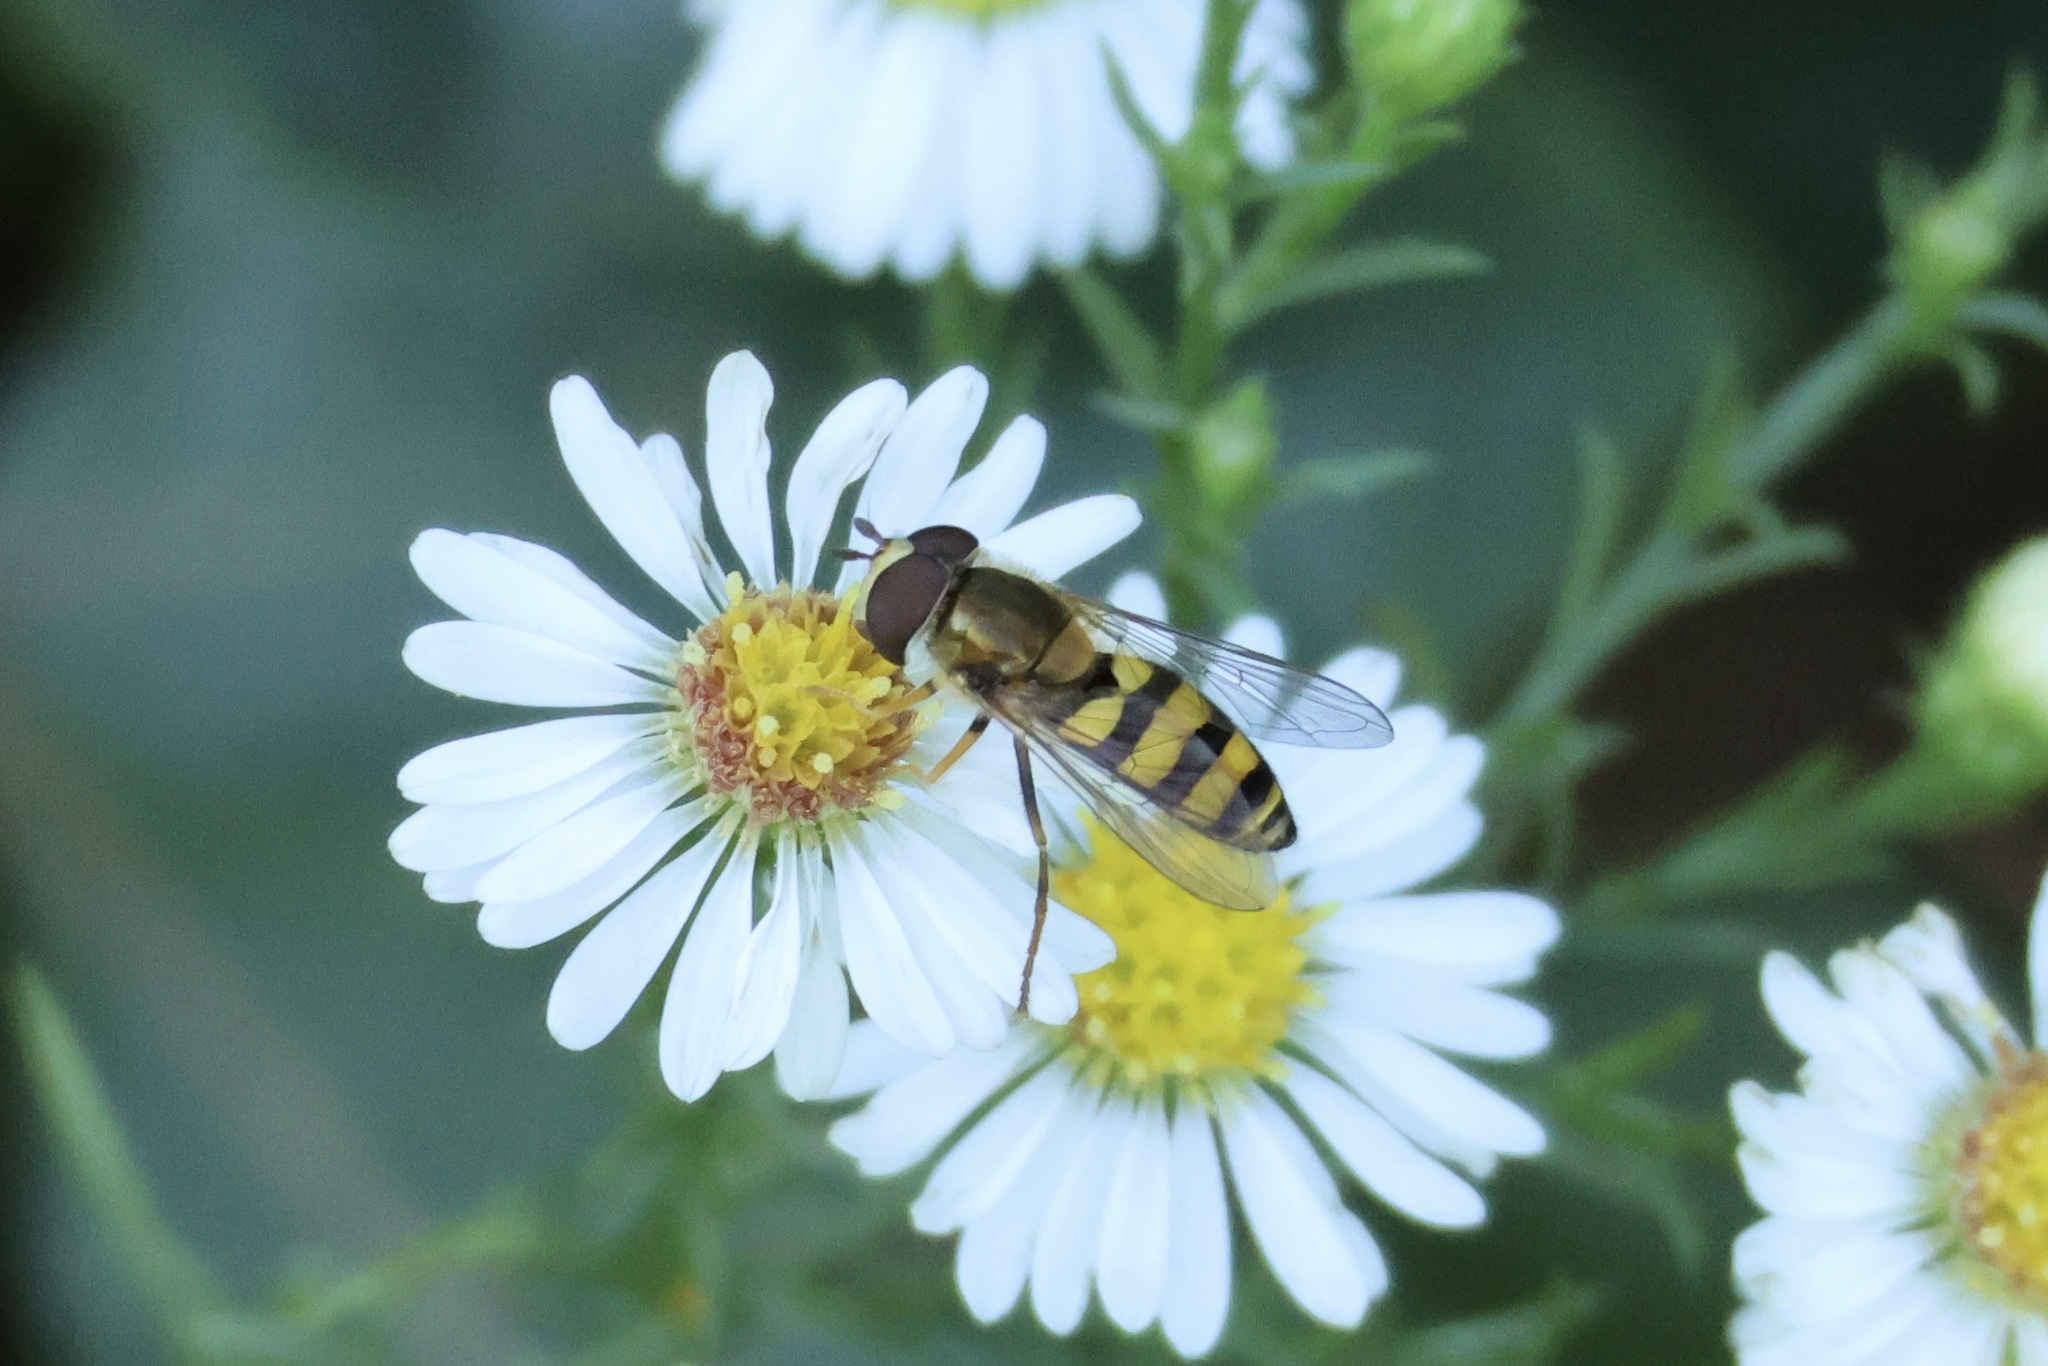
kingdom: Animalia
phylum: Arthropoda
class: Insecta
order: Diptera
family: Syrphidae
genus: Eupeodes
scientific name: Eupeodes
